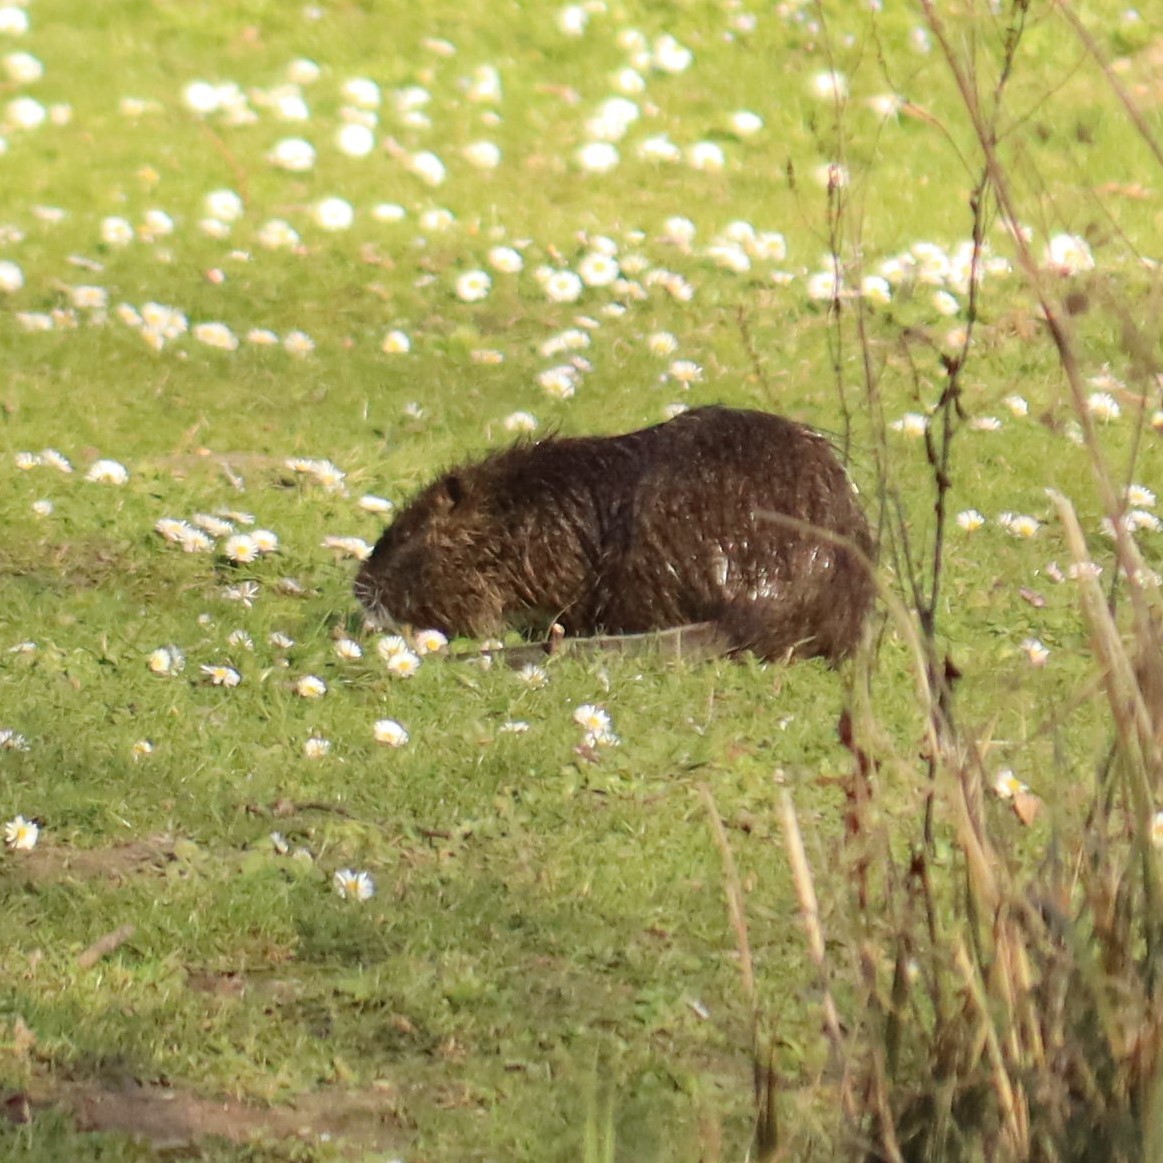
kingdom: Animalia
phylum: Chordata
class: Mammalia
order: Rodentia
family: Myocastoridae
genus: Myocastor
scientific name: Myocastor coypus
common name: Coypu
